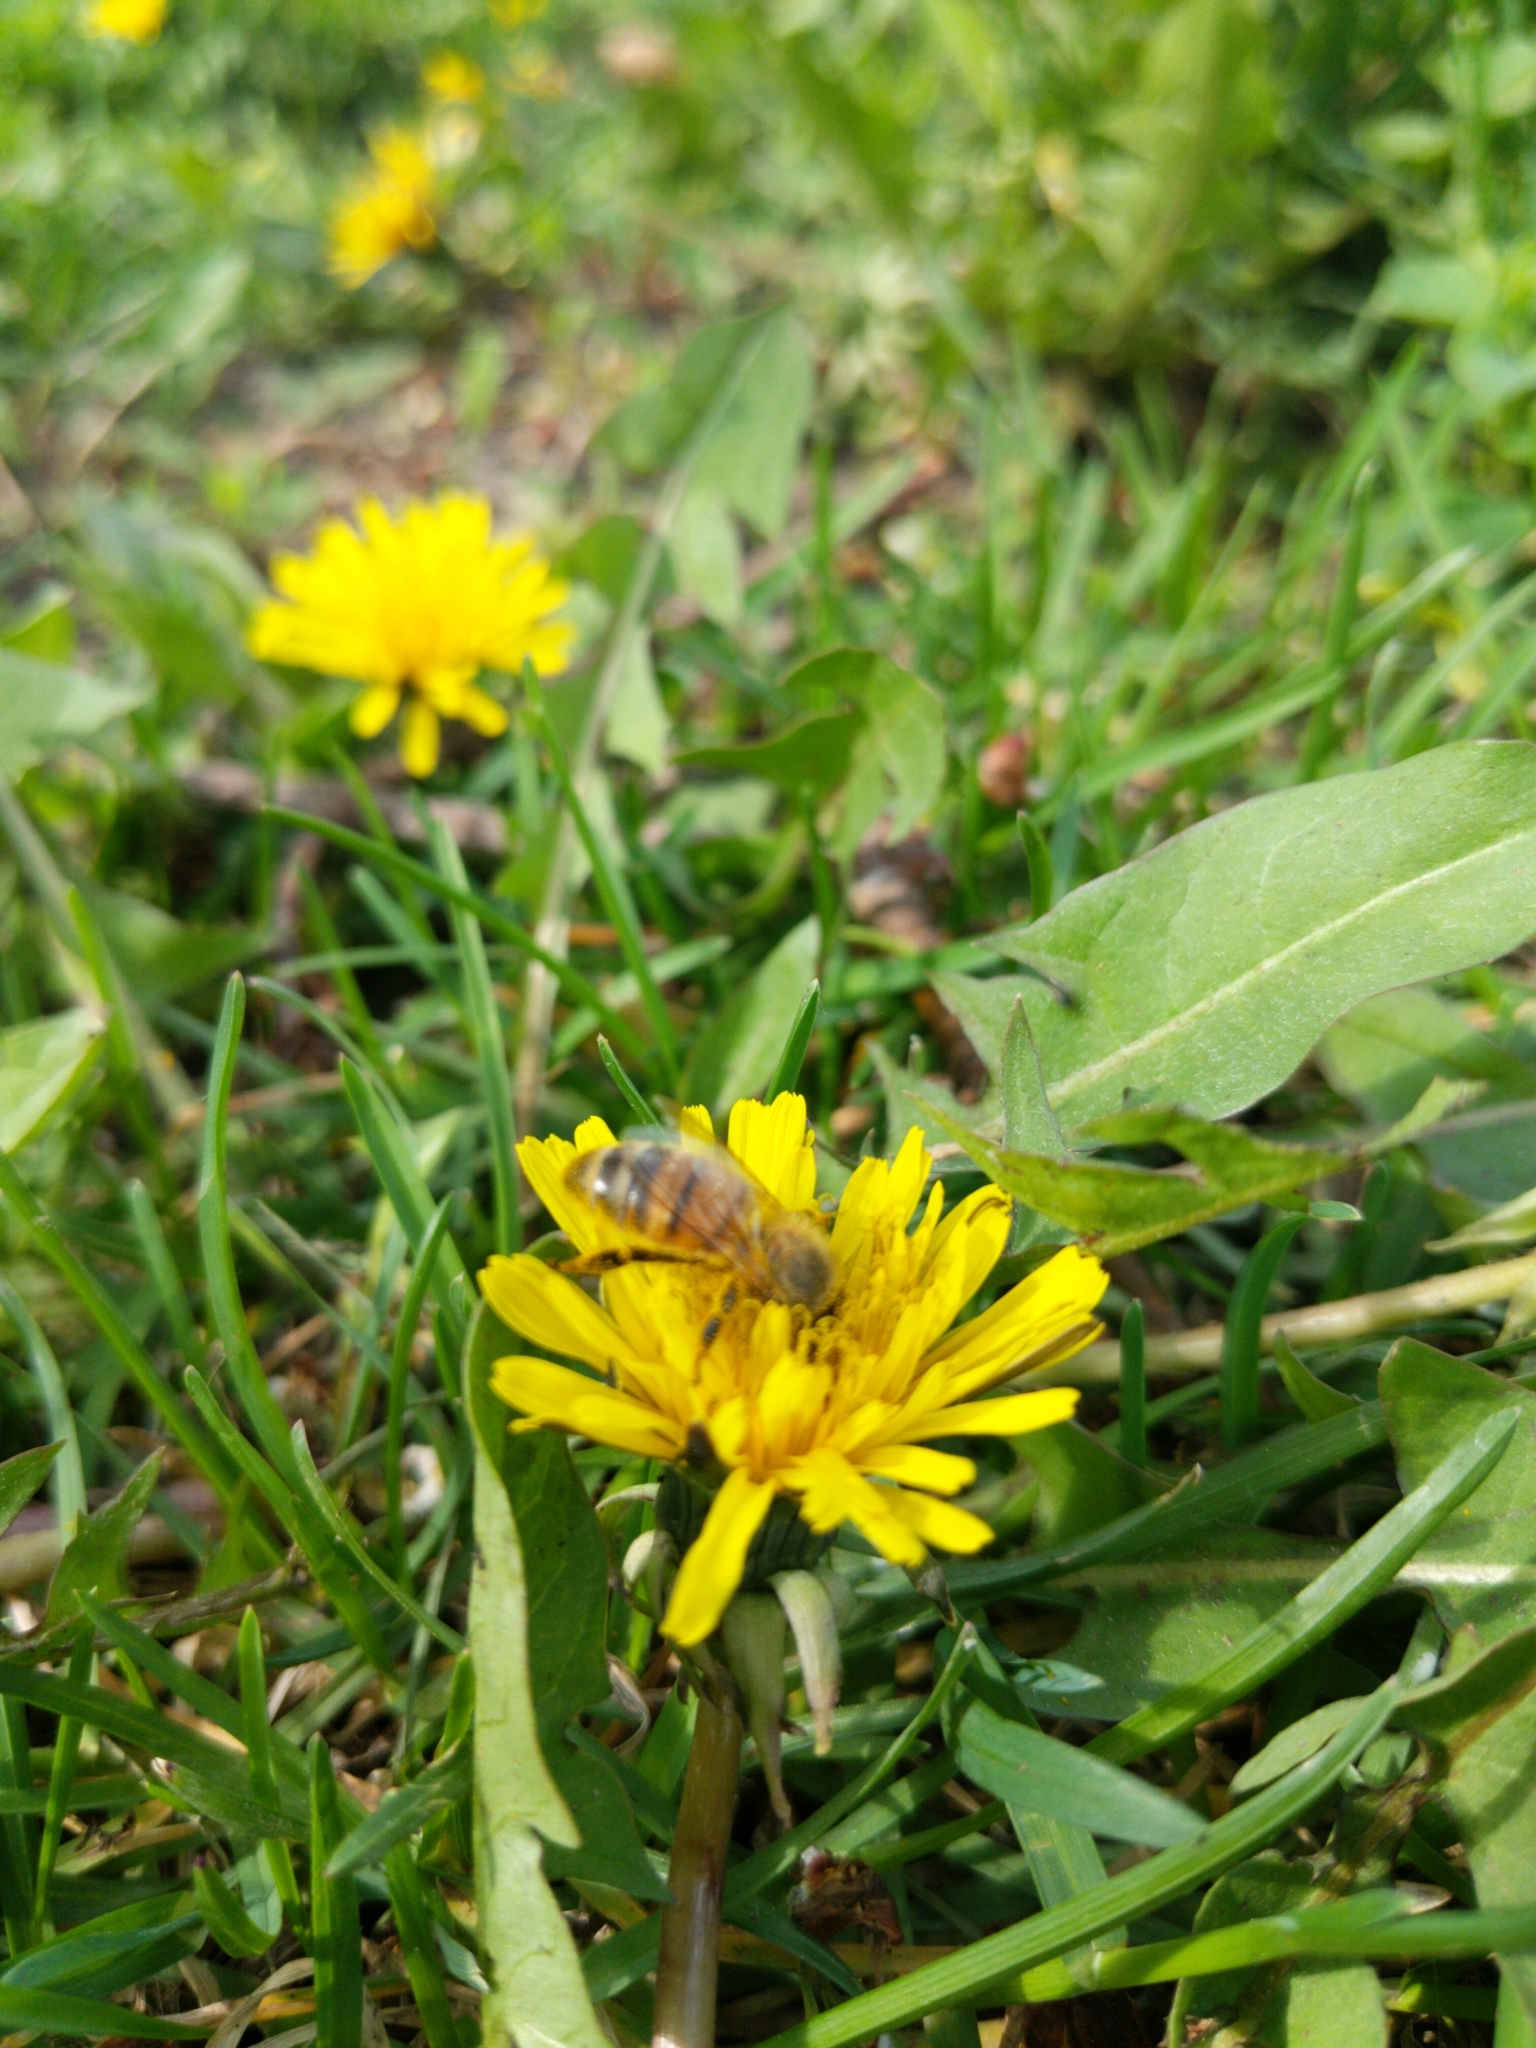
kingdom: Animalia
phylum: Arthropoda
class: Insecta
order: Hymenoptera
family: Apidae
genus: Apis
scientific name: Apis mellifera
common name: Honey bee
